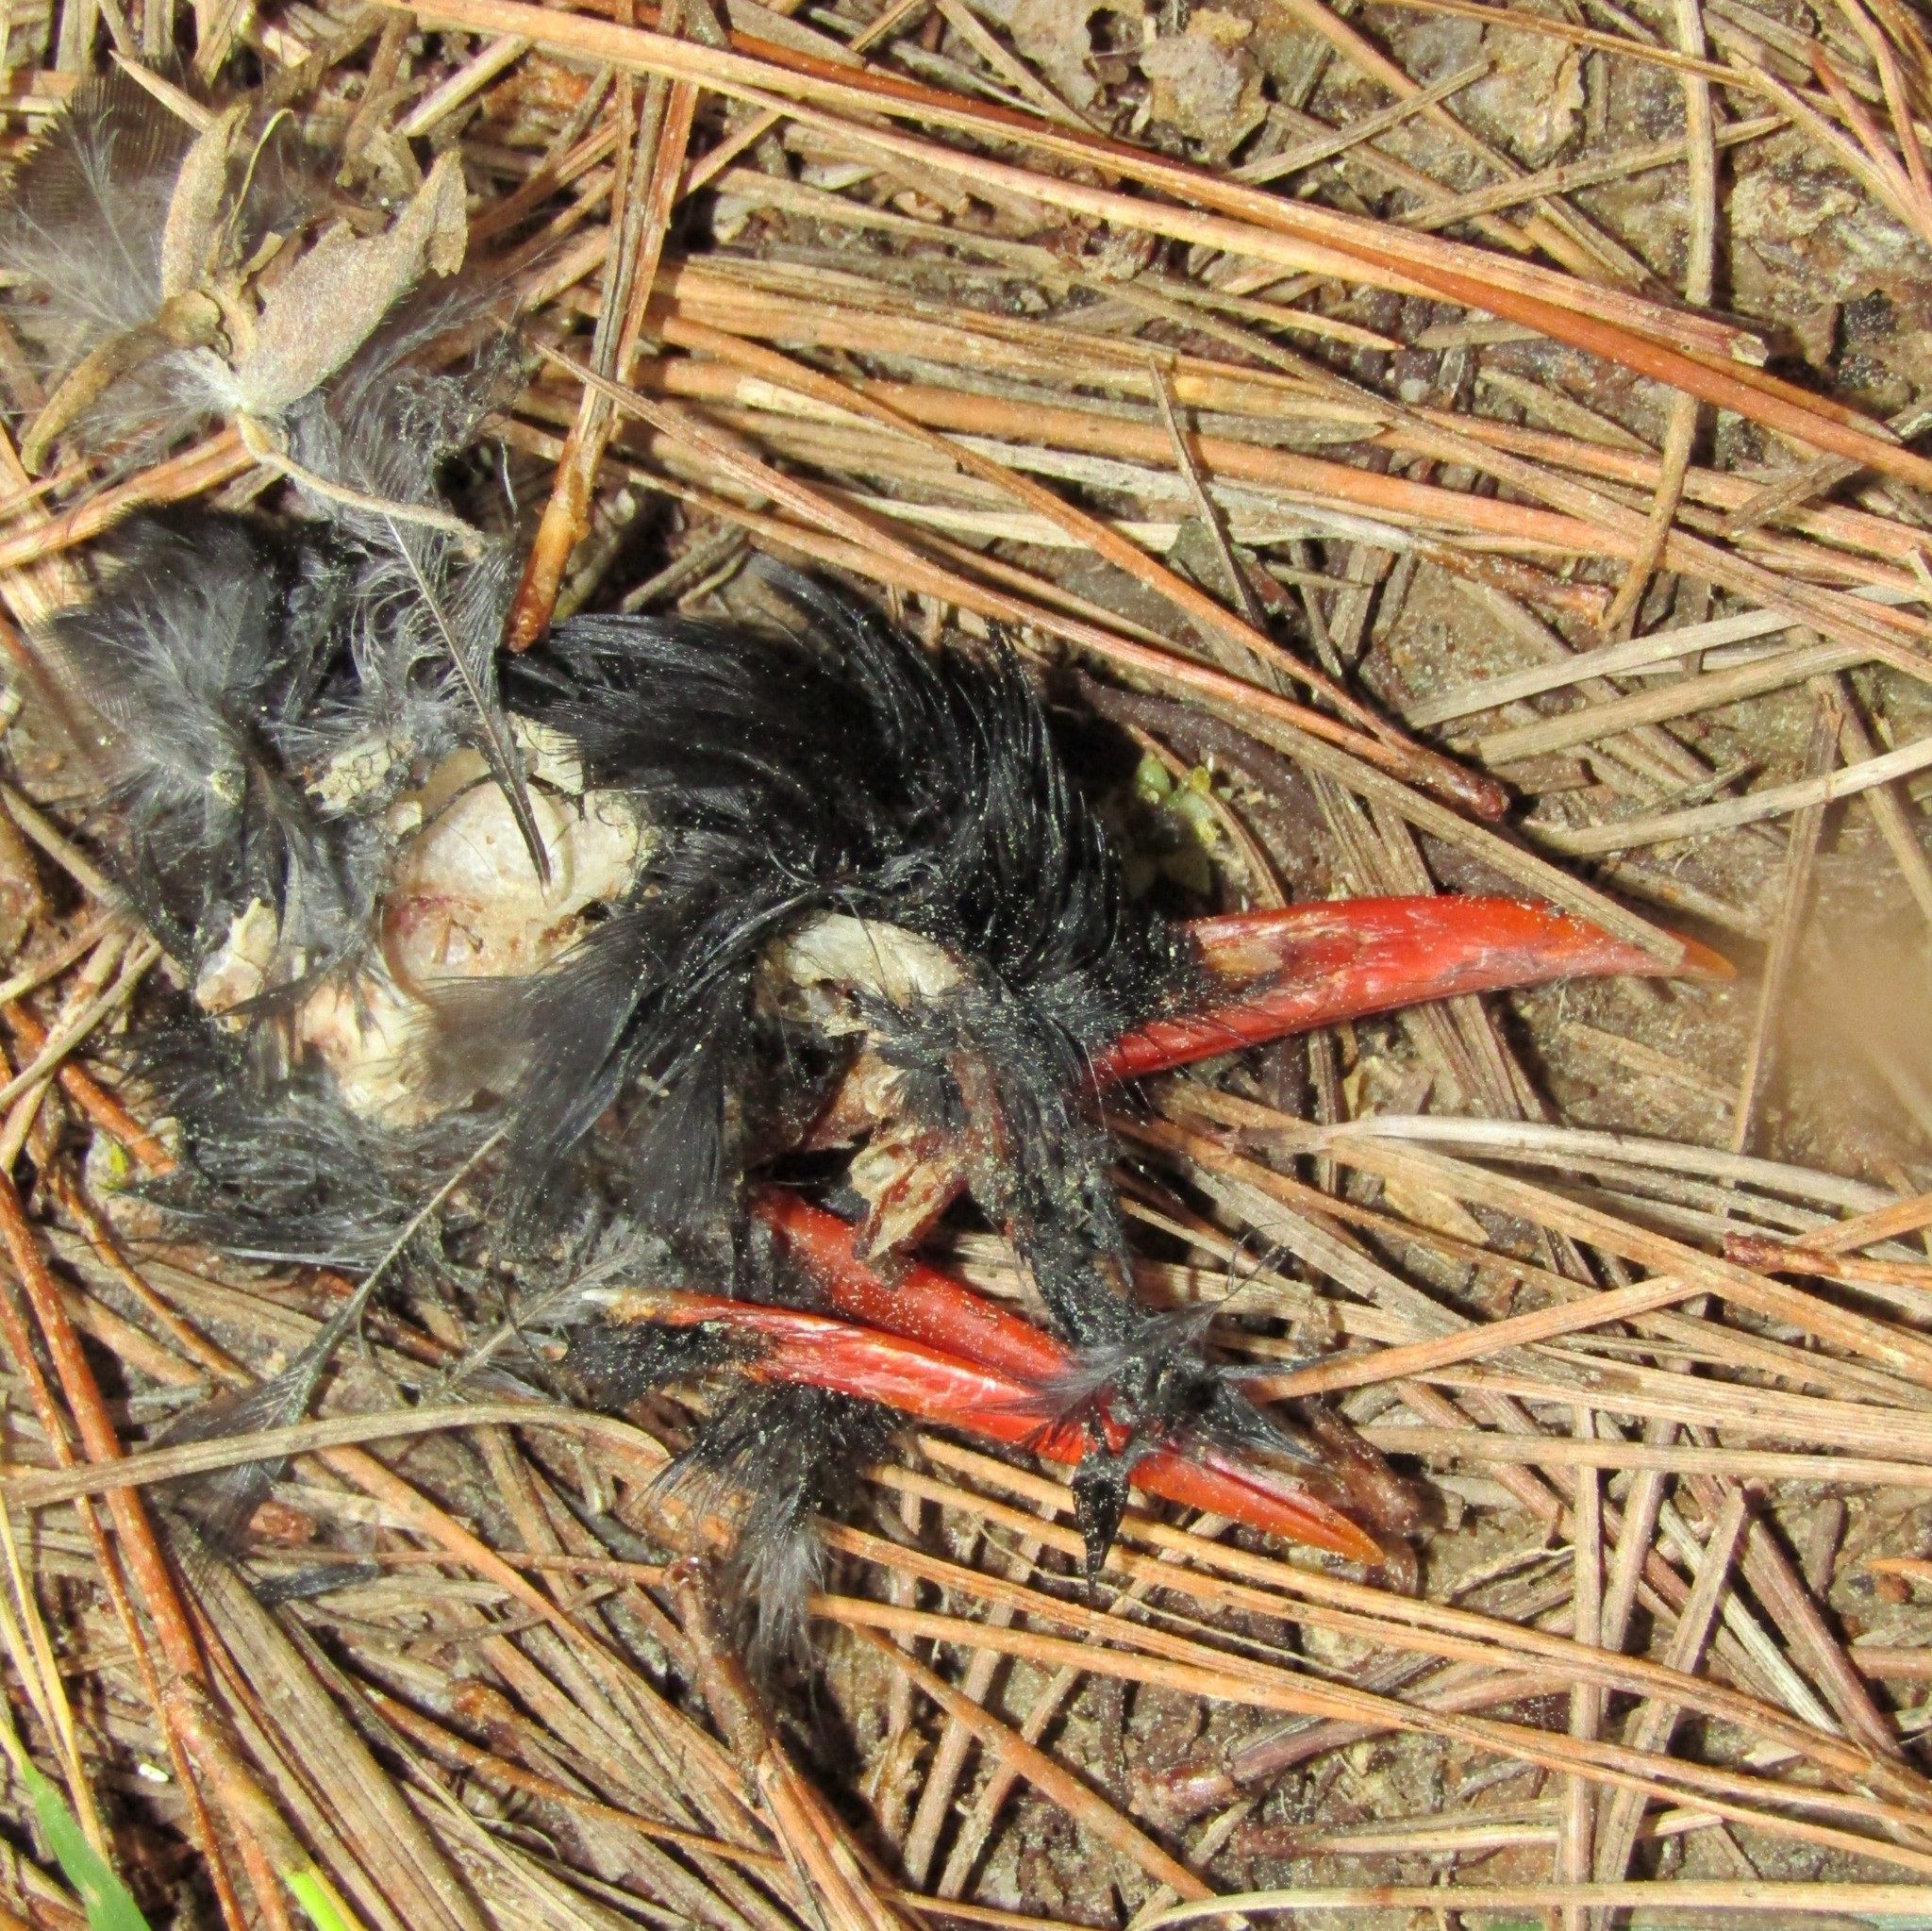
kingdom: Animalia
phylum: Chordata
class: Aves
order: Passeriformes
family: Turdidae
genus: Turdus
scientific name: Turdus merula
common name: Common blackbird
